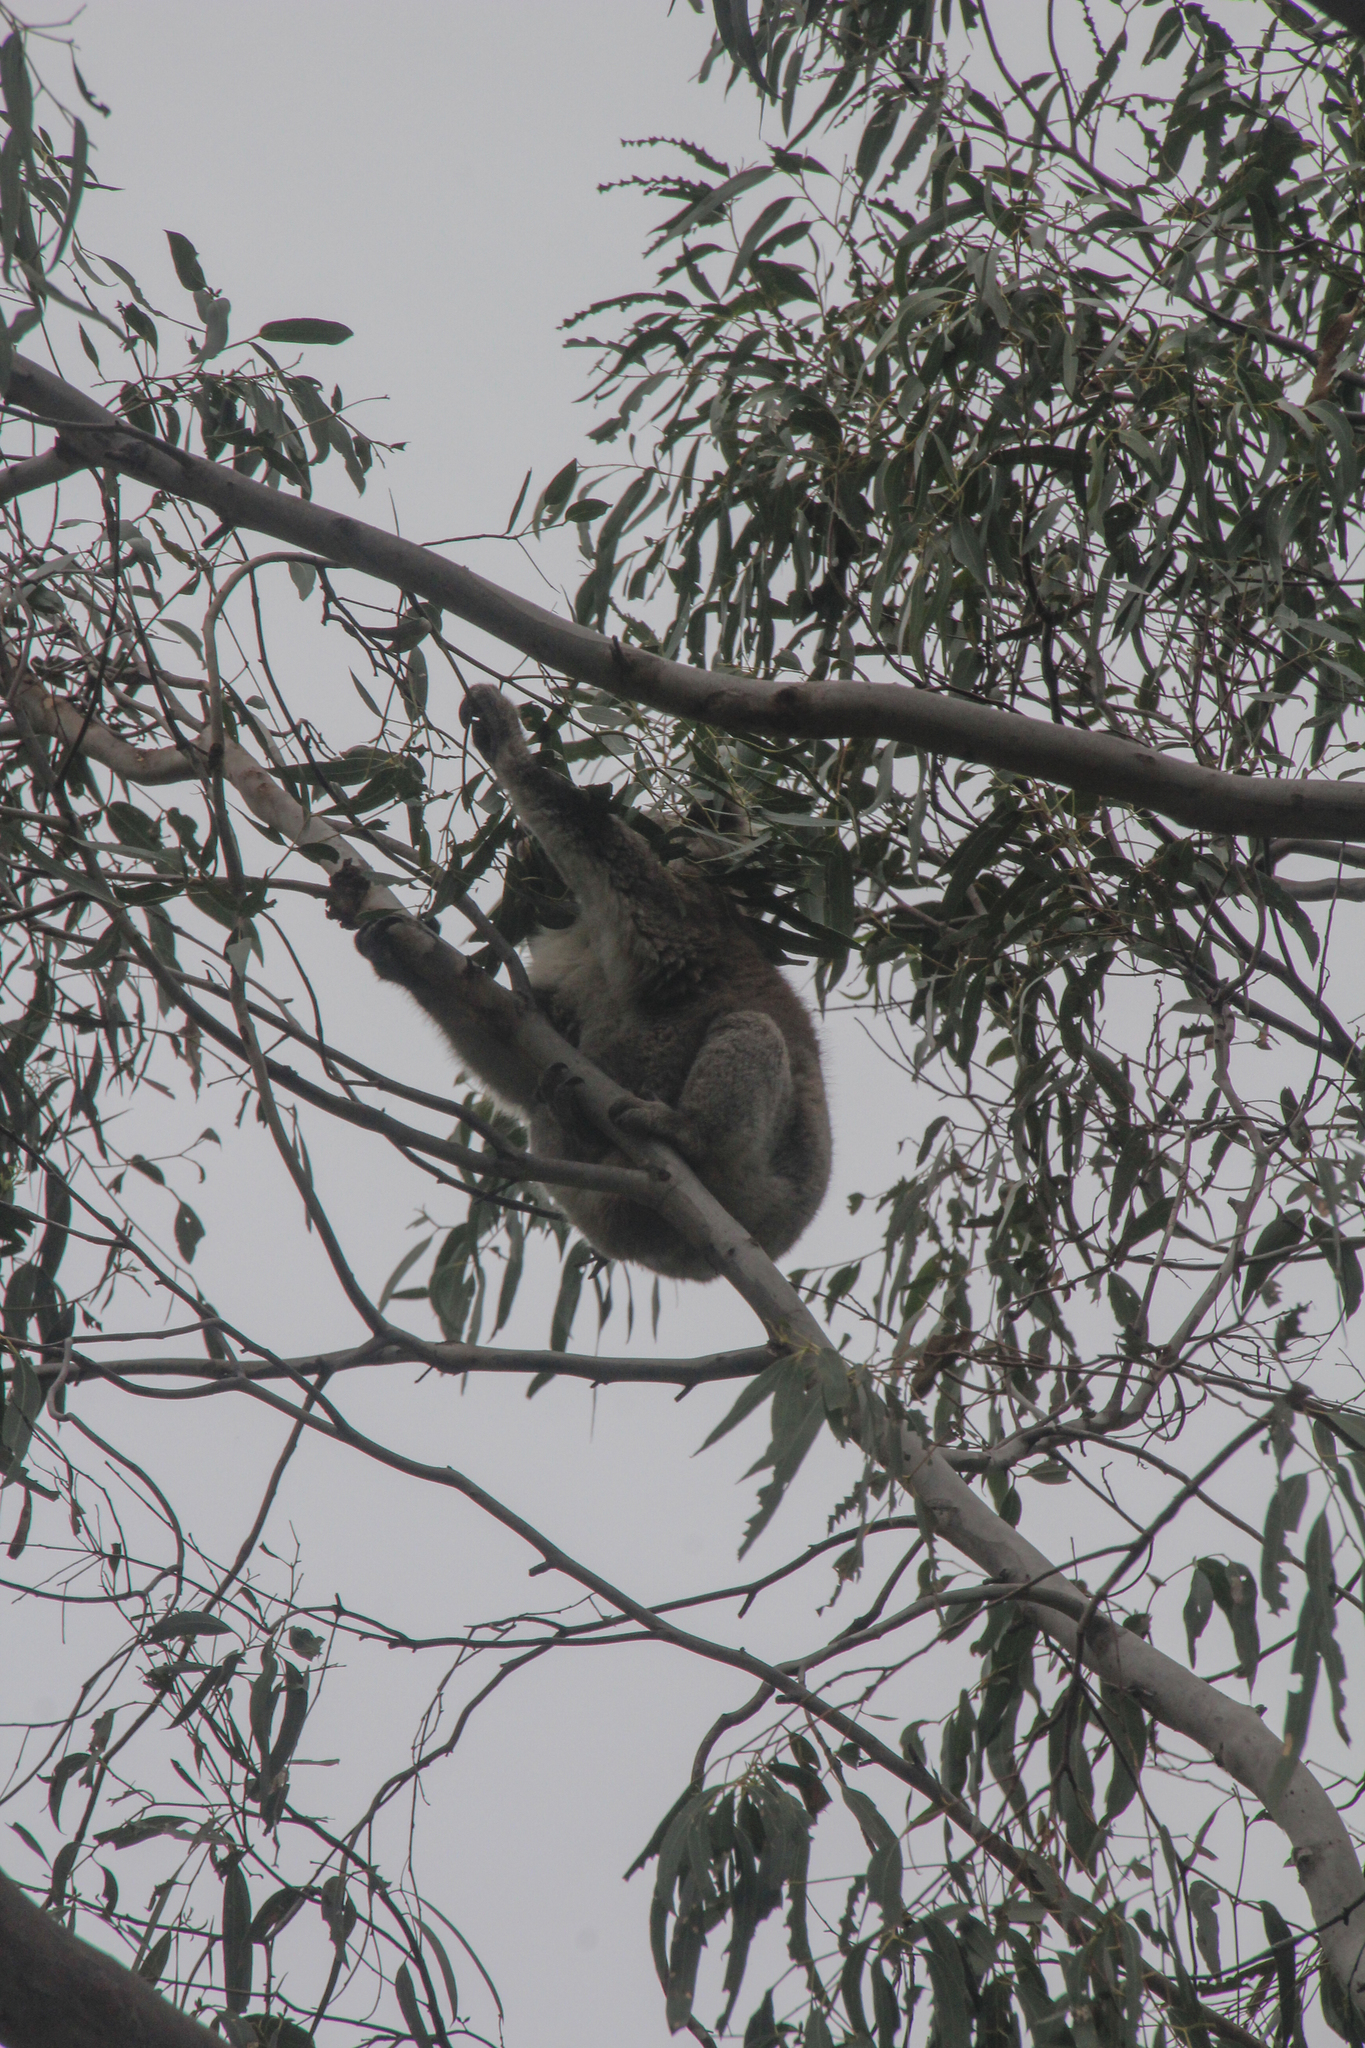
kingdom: Animalia
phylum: Chordata
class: Mammalia
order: Diprotodontia
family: Phascolarctidae
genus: Phascolarctos
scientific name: Phascolarctos cinereus
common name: Koala
